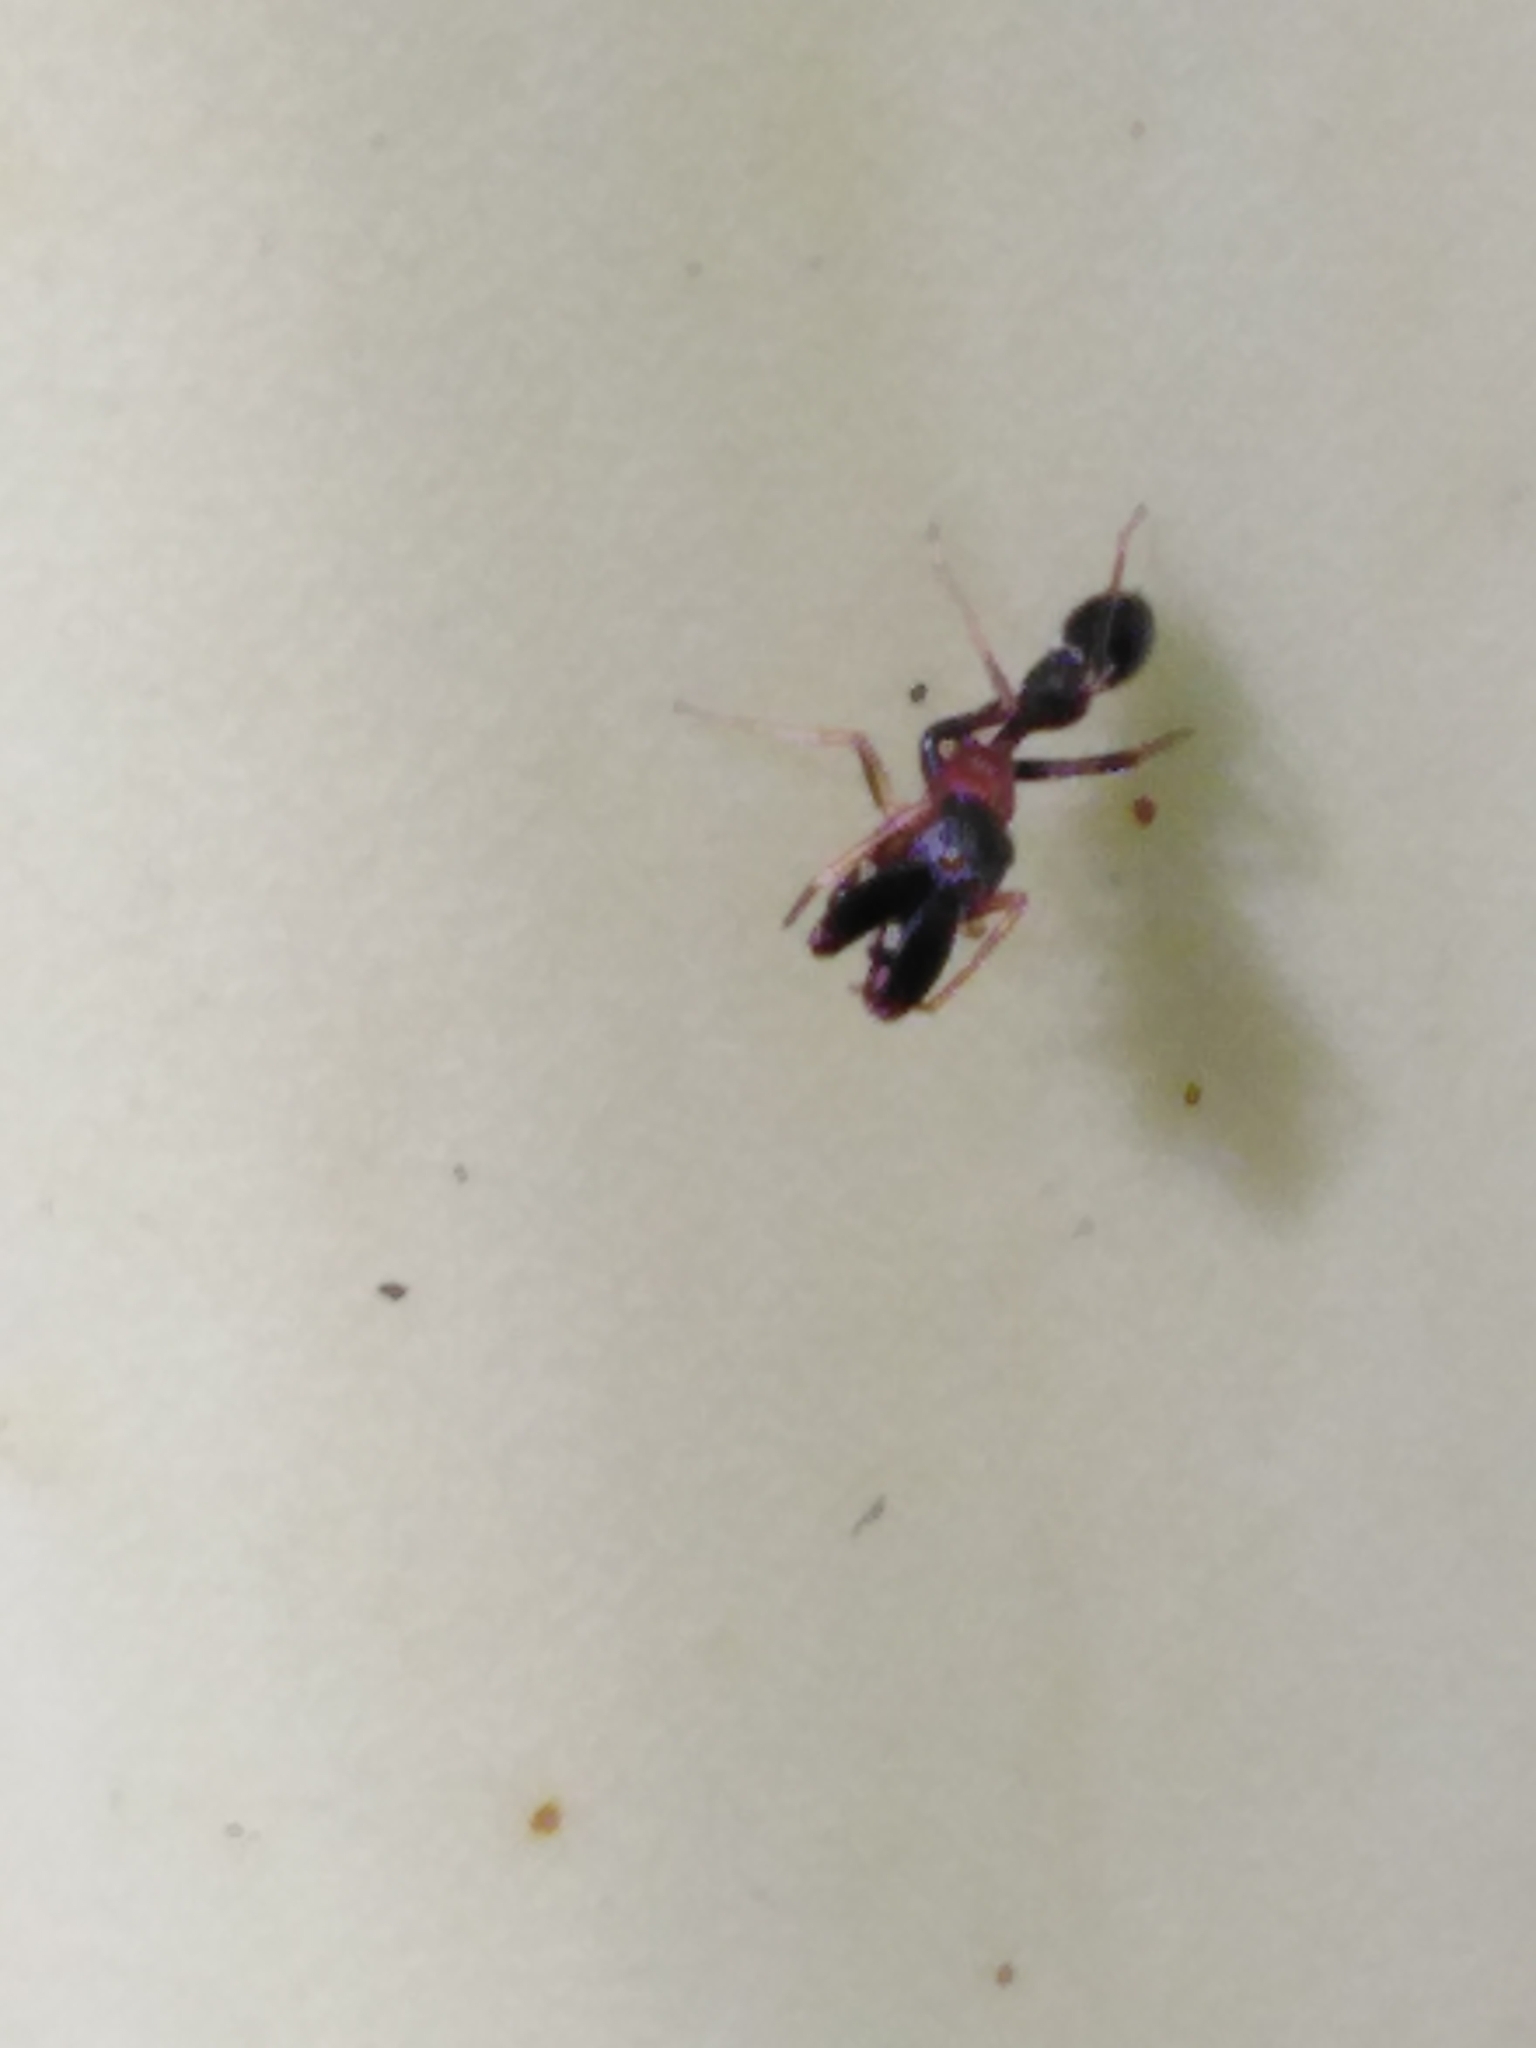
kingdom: Animalia
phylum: Arthropoda
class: Arachnida
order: Araneae
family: Salticidae
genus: Myrmarachne
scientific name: Myrmarachne melanocephala
